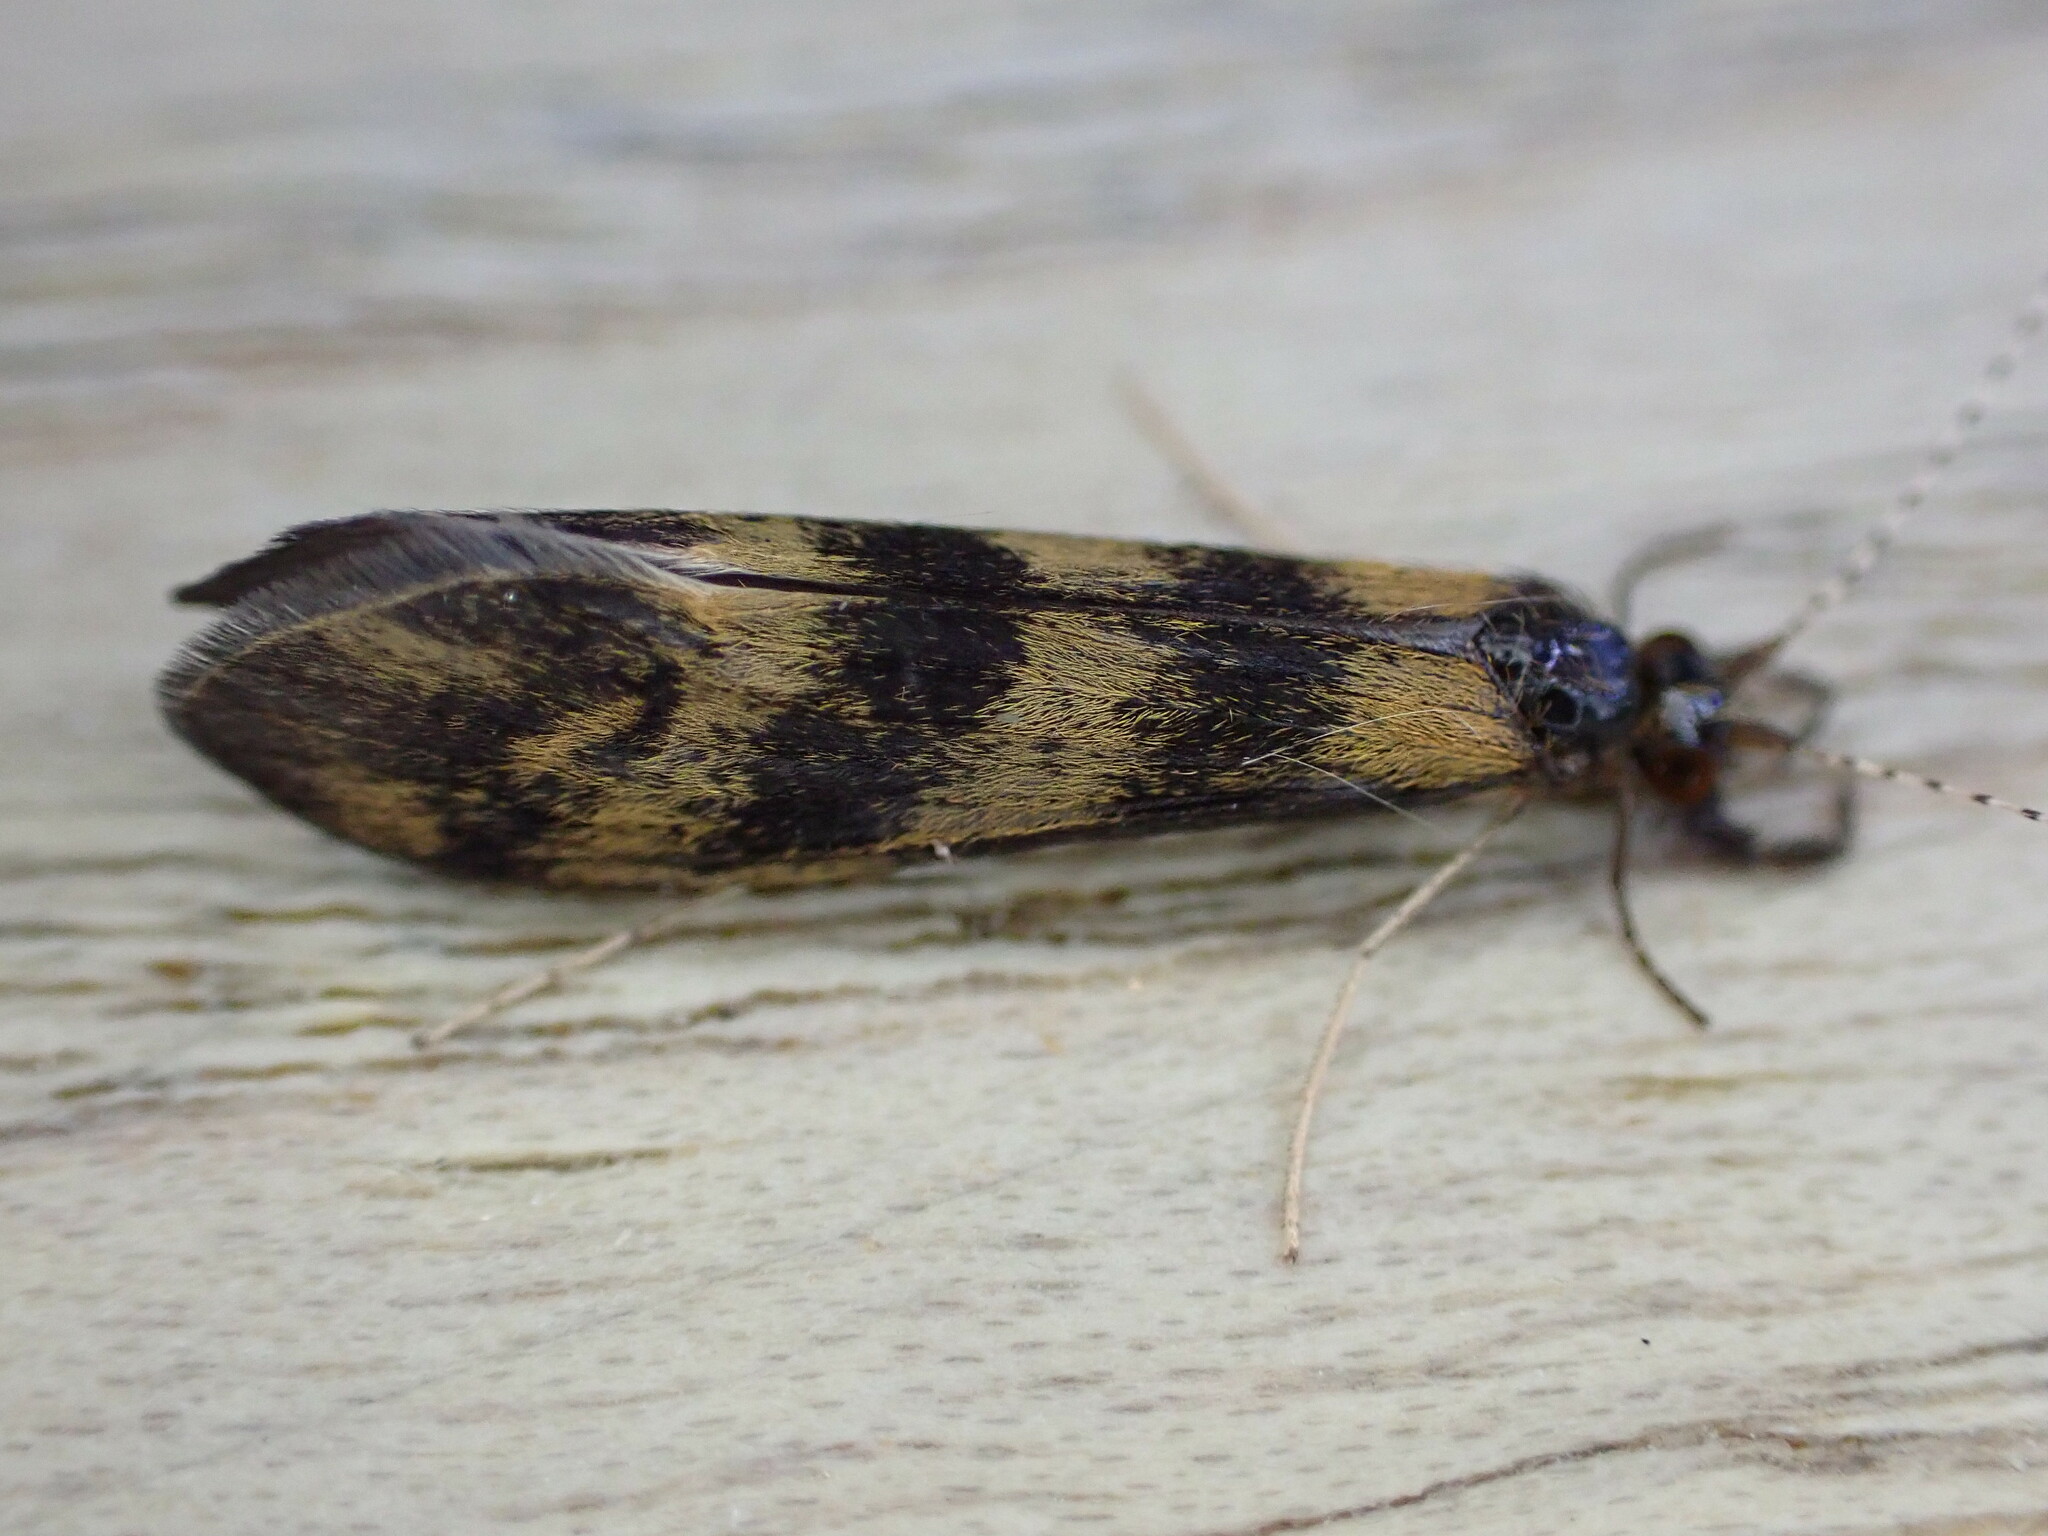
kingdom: Animalia
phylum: Arthropoda
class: Insecta
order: Trichoptera
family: Leptoceridae
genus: Mystacides
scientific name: Mystacides longicornis
